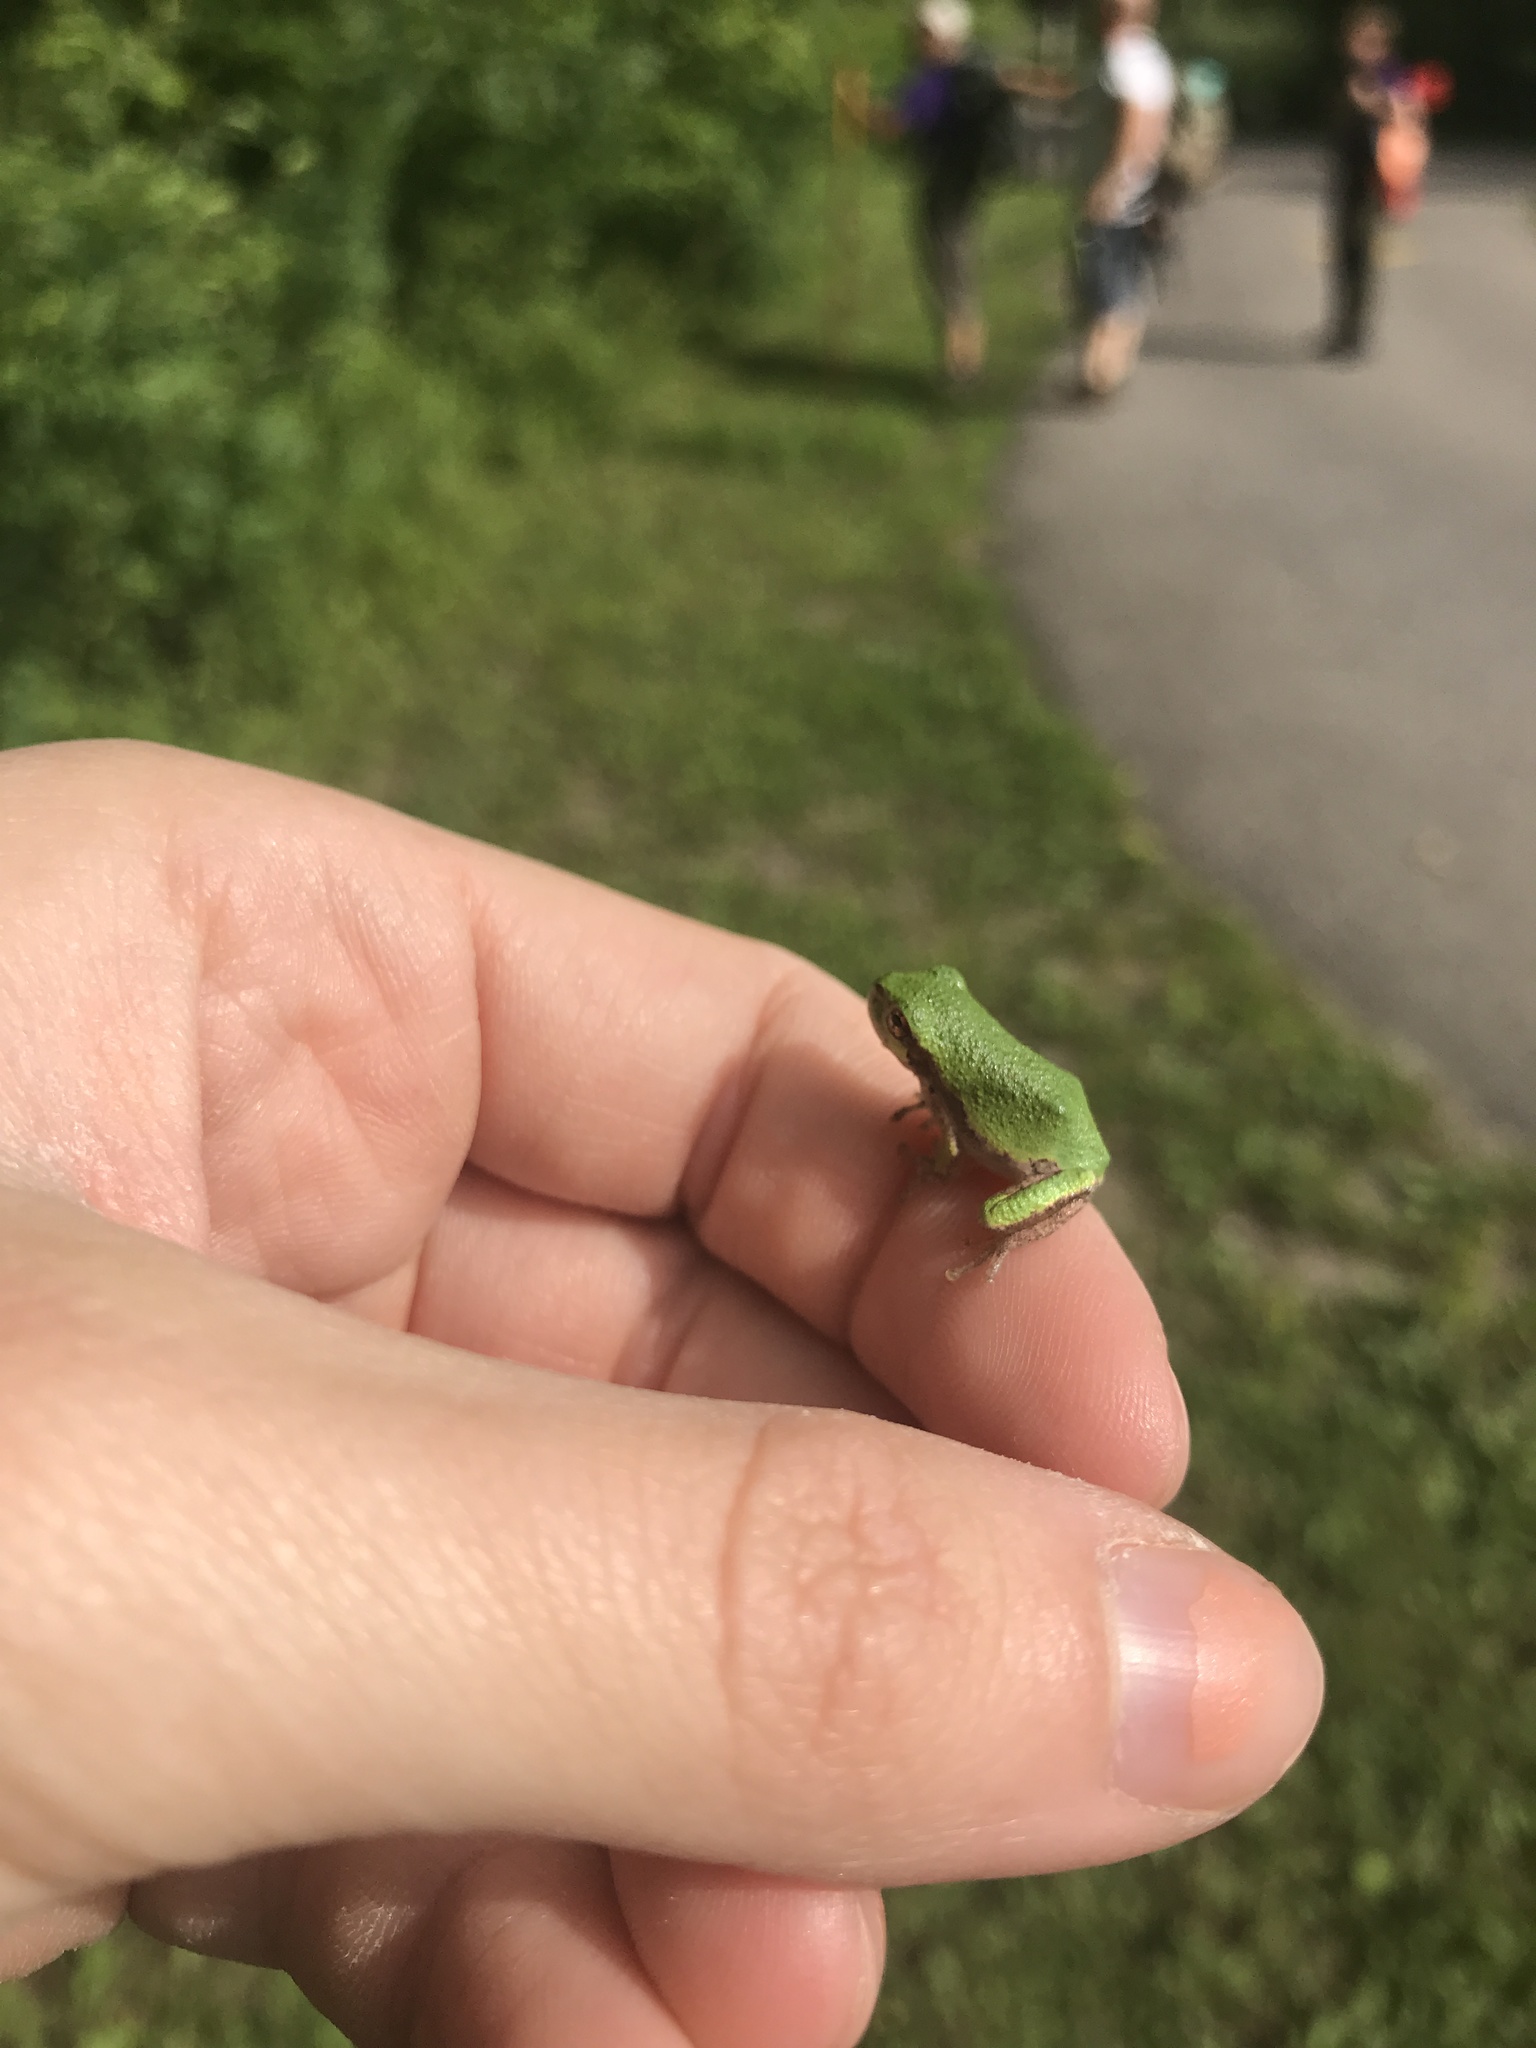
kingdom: Animalia
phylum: Chordata
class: Amphibia
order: Anura
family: Hylidae
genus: Hyla
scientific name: Hyla
